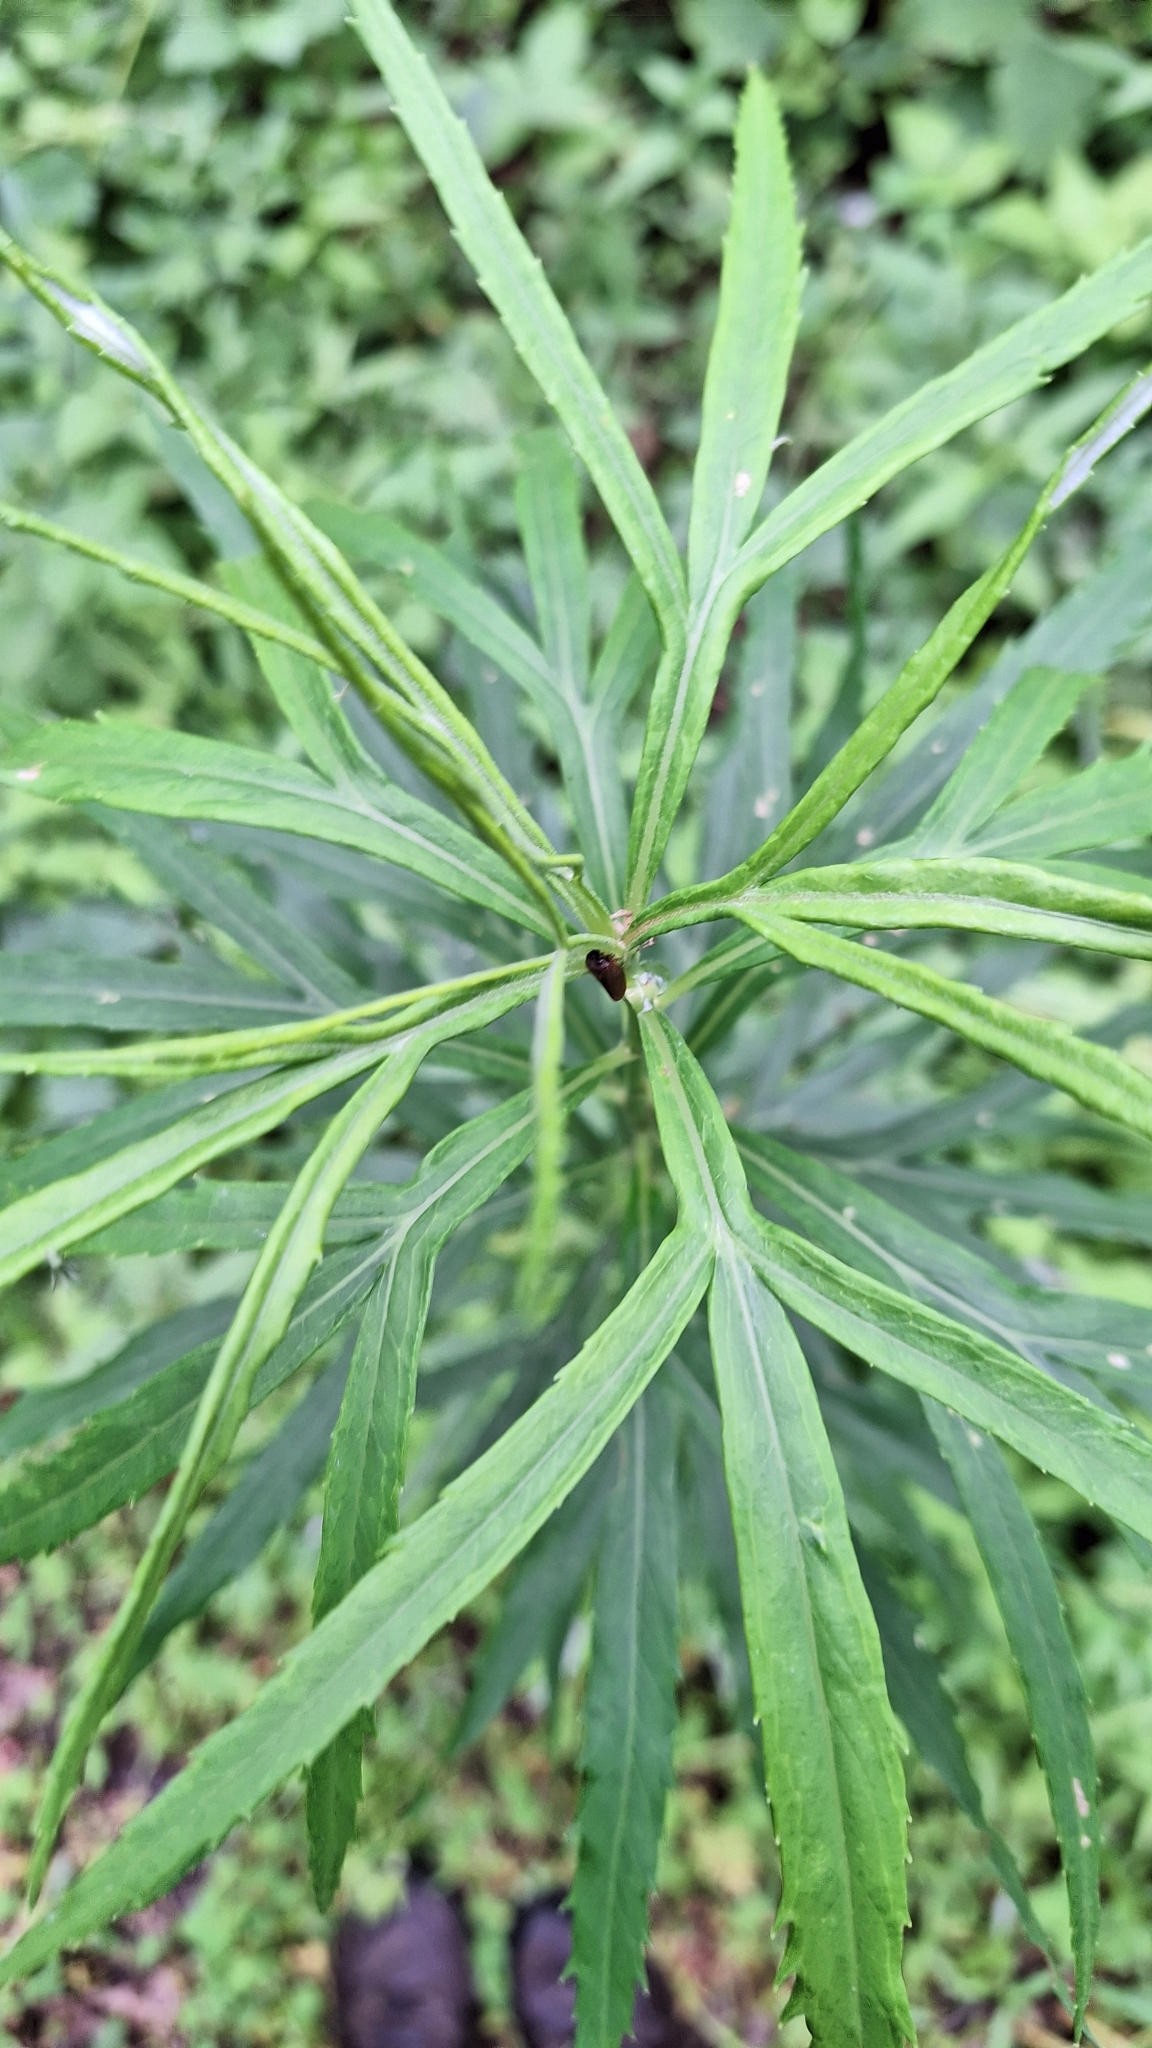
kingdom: Plantae
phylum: Tracheophyta
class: Magnoliopsida
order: Asterales
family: Asteraceae
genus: Artemisia
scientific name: Artemisia selengensis
